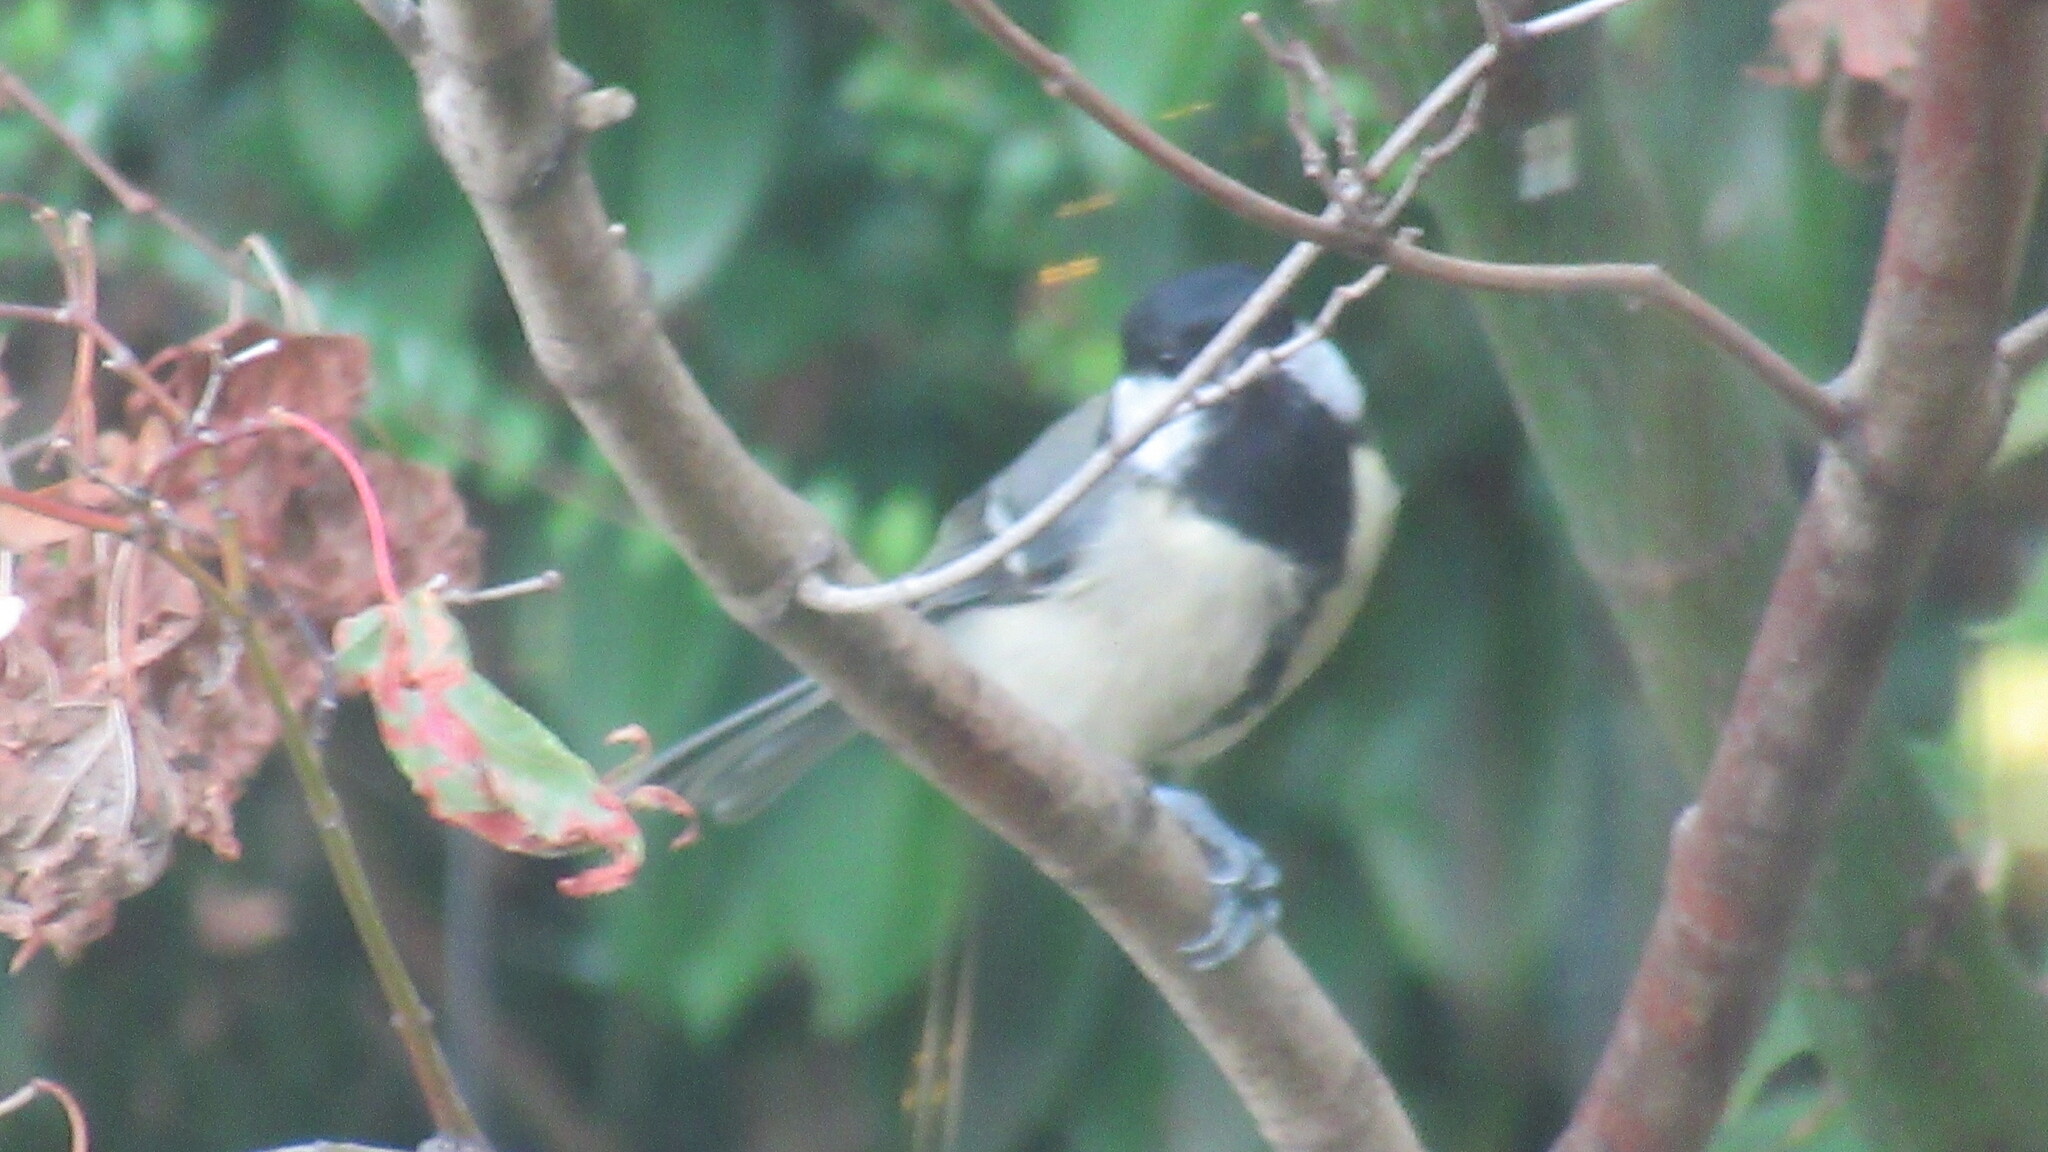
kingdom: Animalia
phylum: Chordata
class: Aves
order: Passeriformes
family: Paridae
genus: Parus
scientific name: Parus major
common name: Great tit
